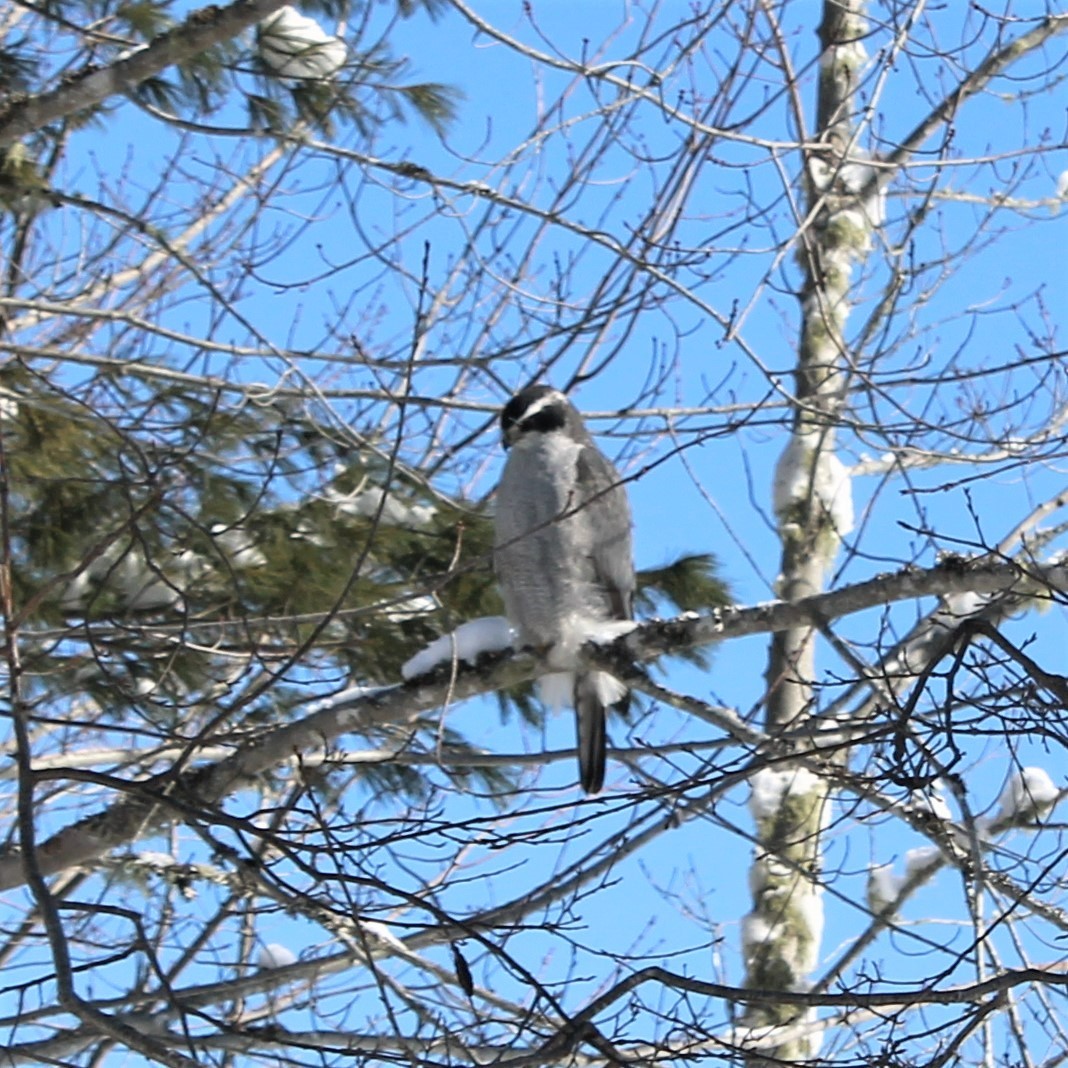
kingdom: Animalia
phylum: Chordata
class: Aves
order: Accipitriformes
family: Accipitridae
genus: Accipiter
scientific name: Accipiter gentilis
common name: Northern goshawk
